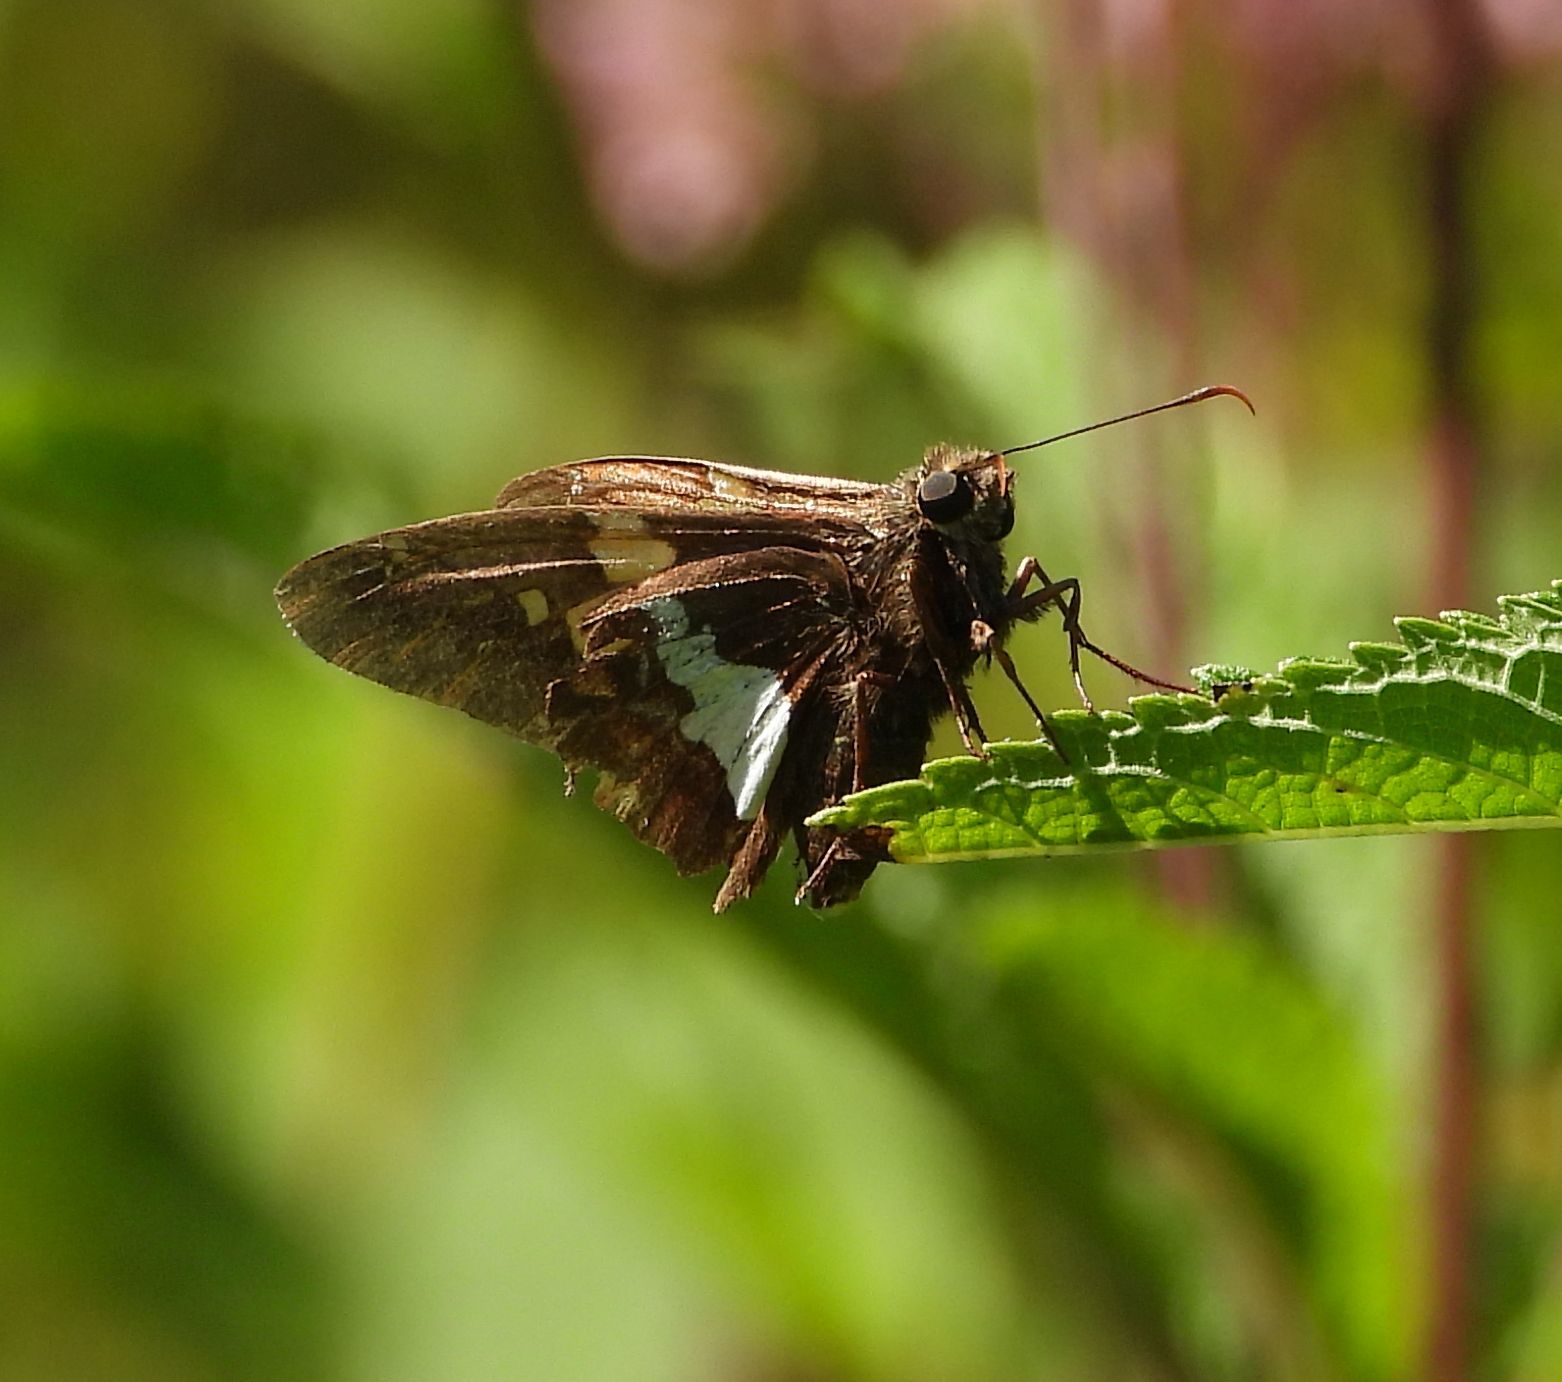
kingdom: Animalia
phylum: Arthropoda
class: Insecta
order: Lepidoptera
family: Hesperiidae
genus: Epargyreus
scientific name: Epargyreus clarus
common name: Silver-spotted skipper
